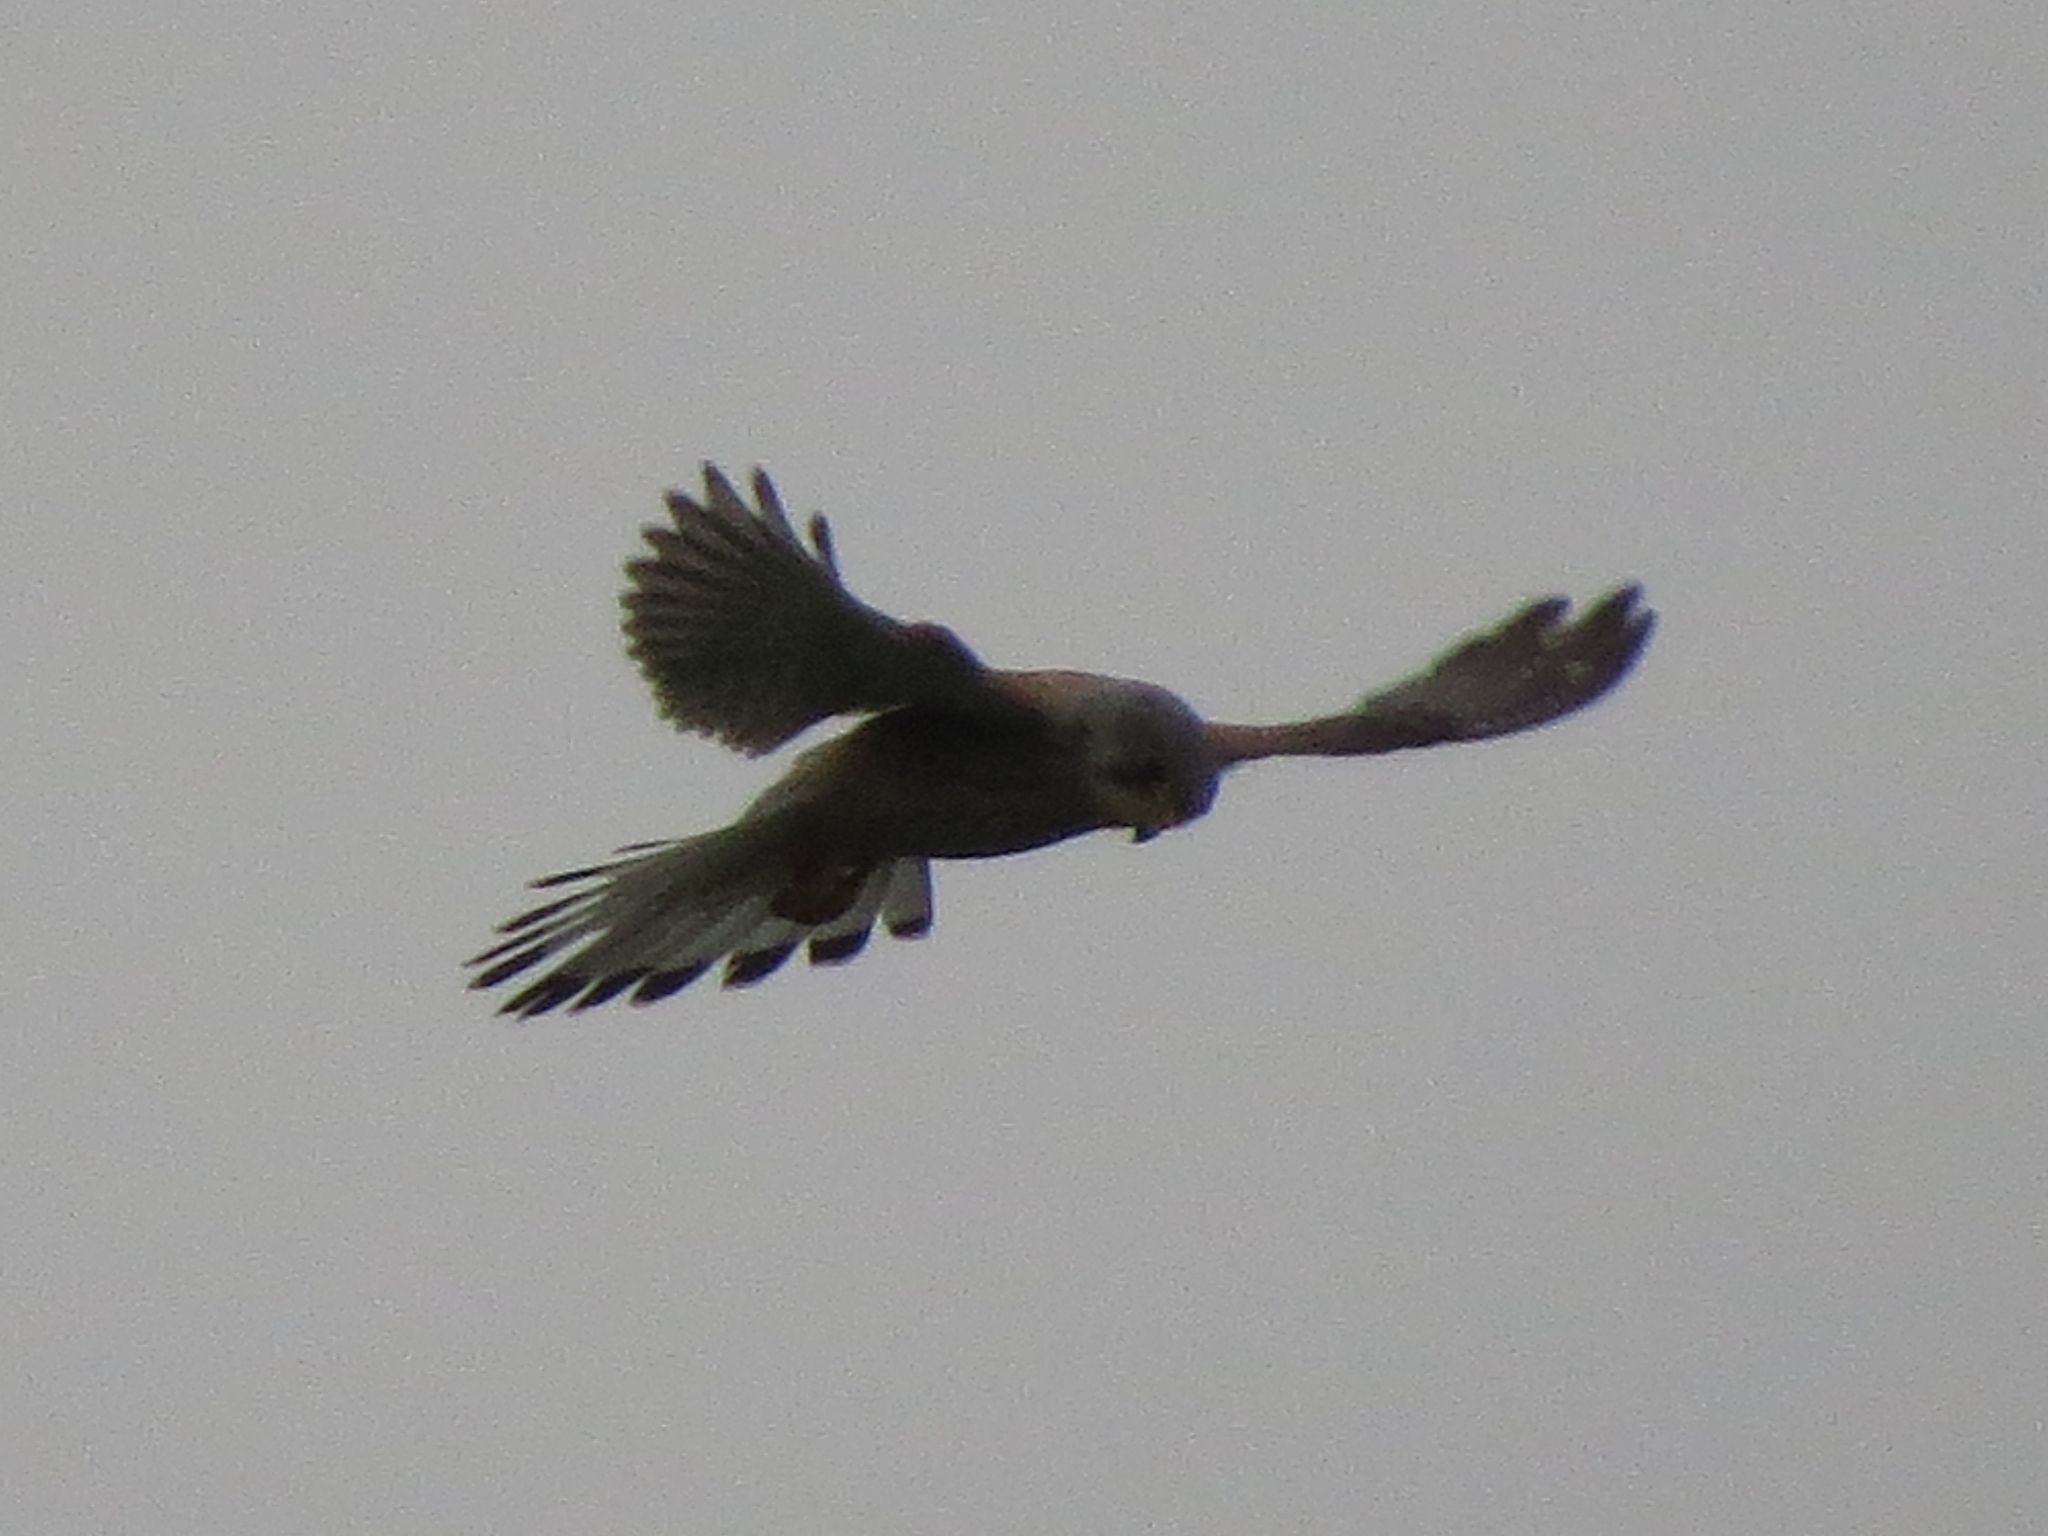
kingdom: Animalia
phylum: Chordata
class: Aves
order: Falconiformes
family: Falconidae
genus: Falco
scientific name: Falco tinnunculus
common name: Common kestrel
